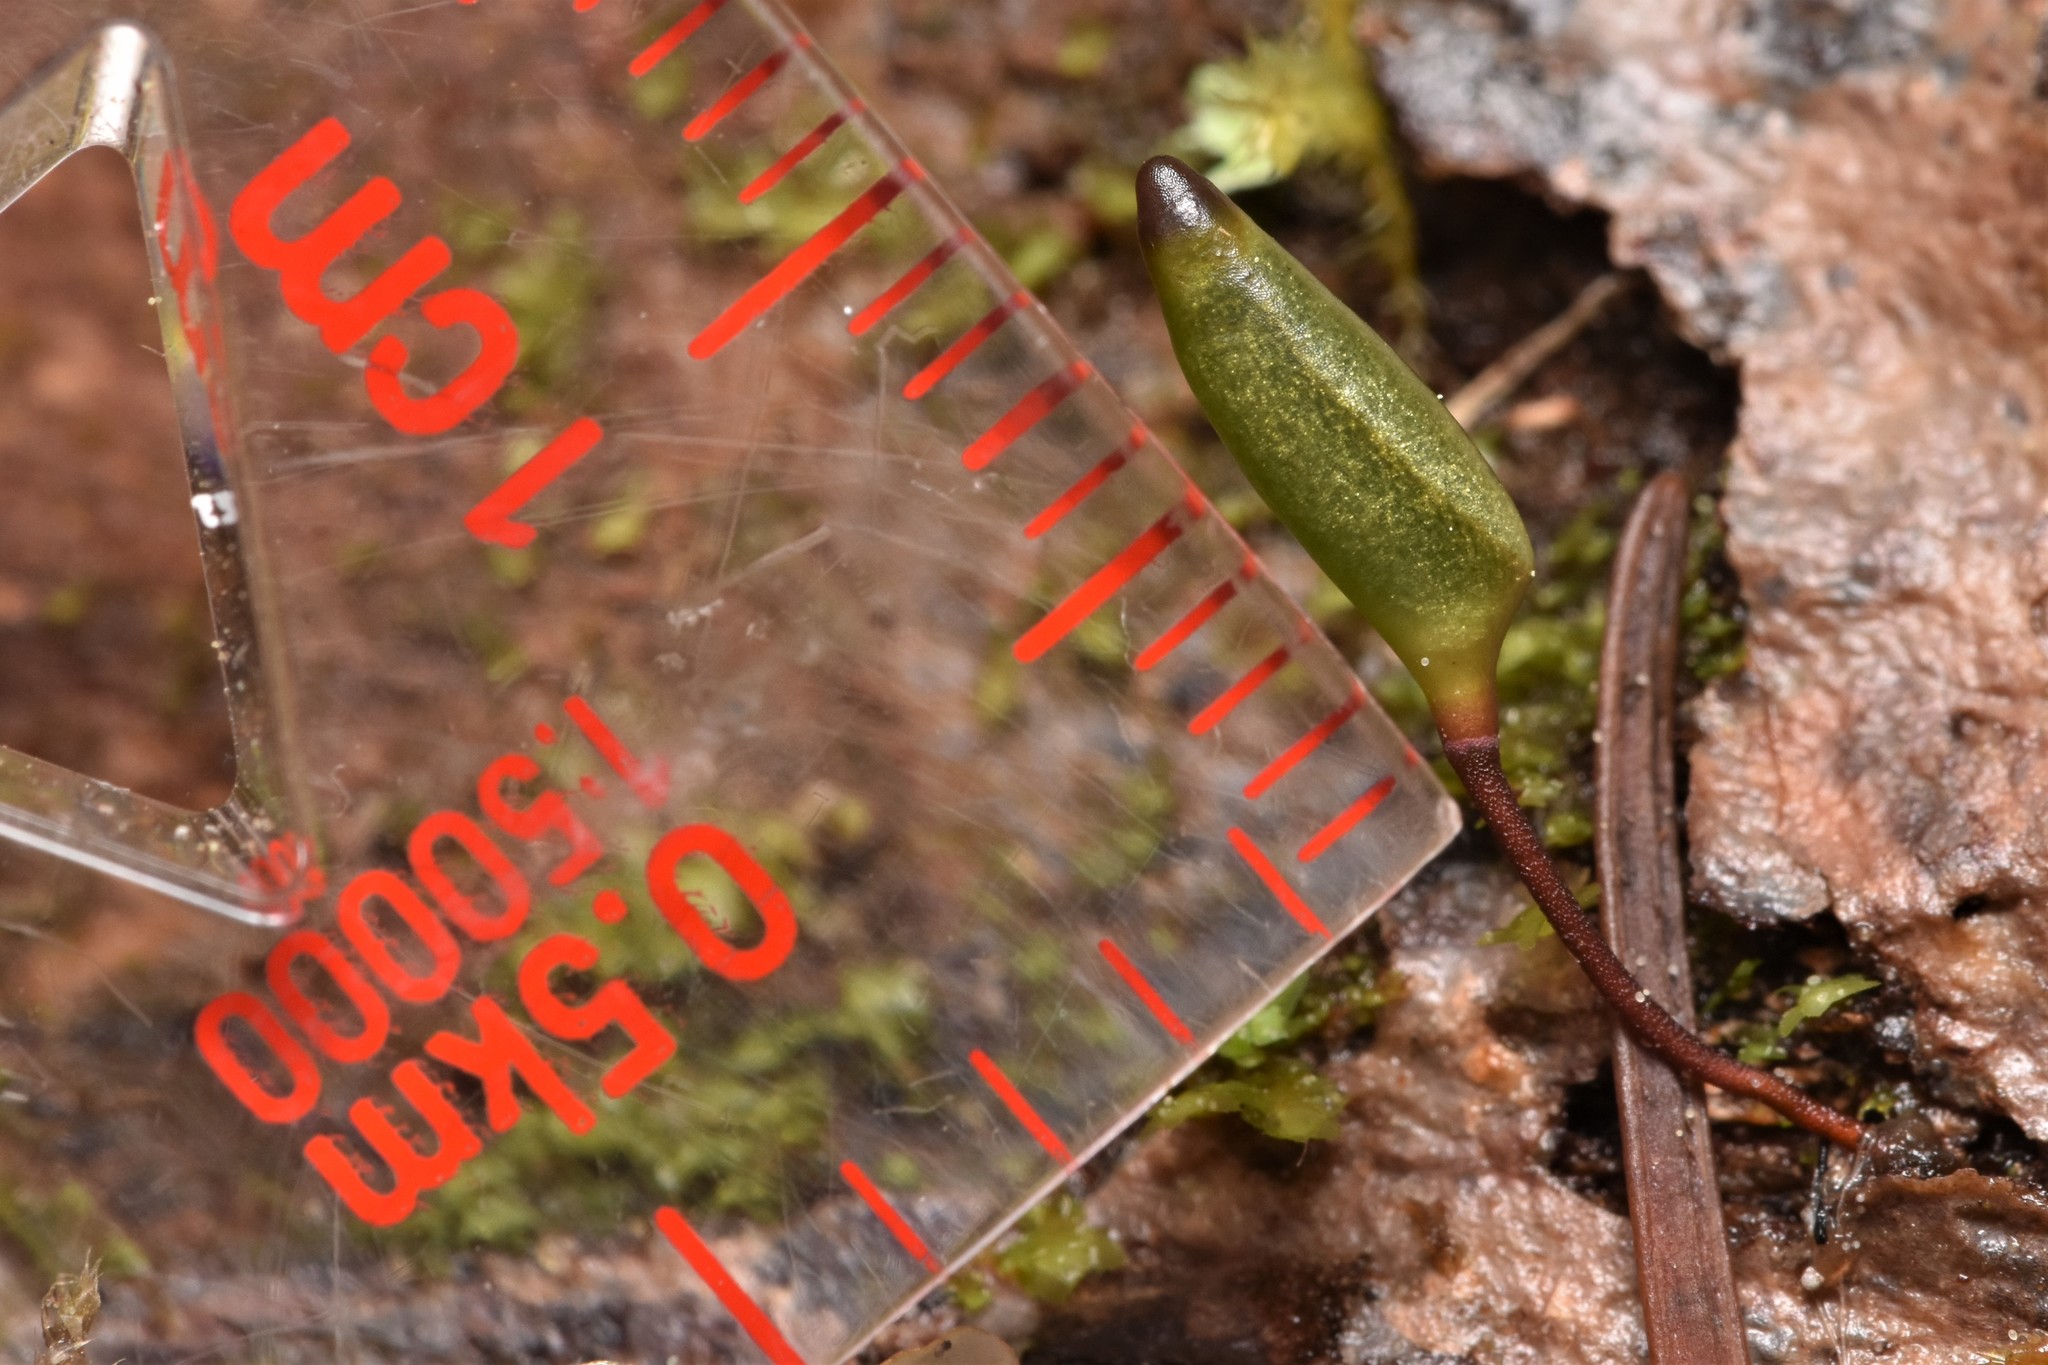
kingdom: Plantae
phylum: Bryophyta
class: Bryopsida
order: Buxbaumiales
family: Buxbaumiaceae
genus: Buxbaumia
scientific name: Buxbaumia piperi
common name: Piper's shield moss
